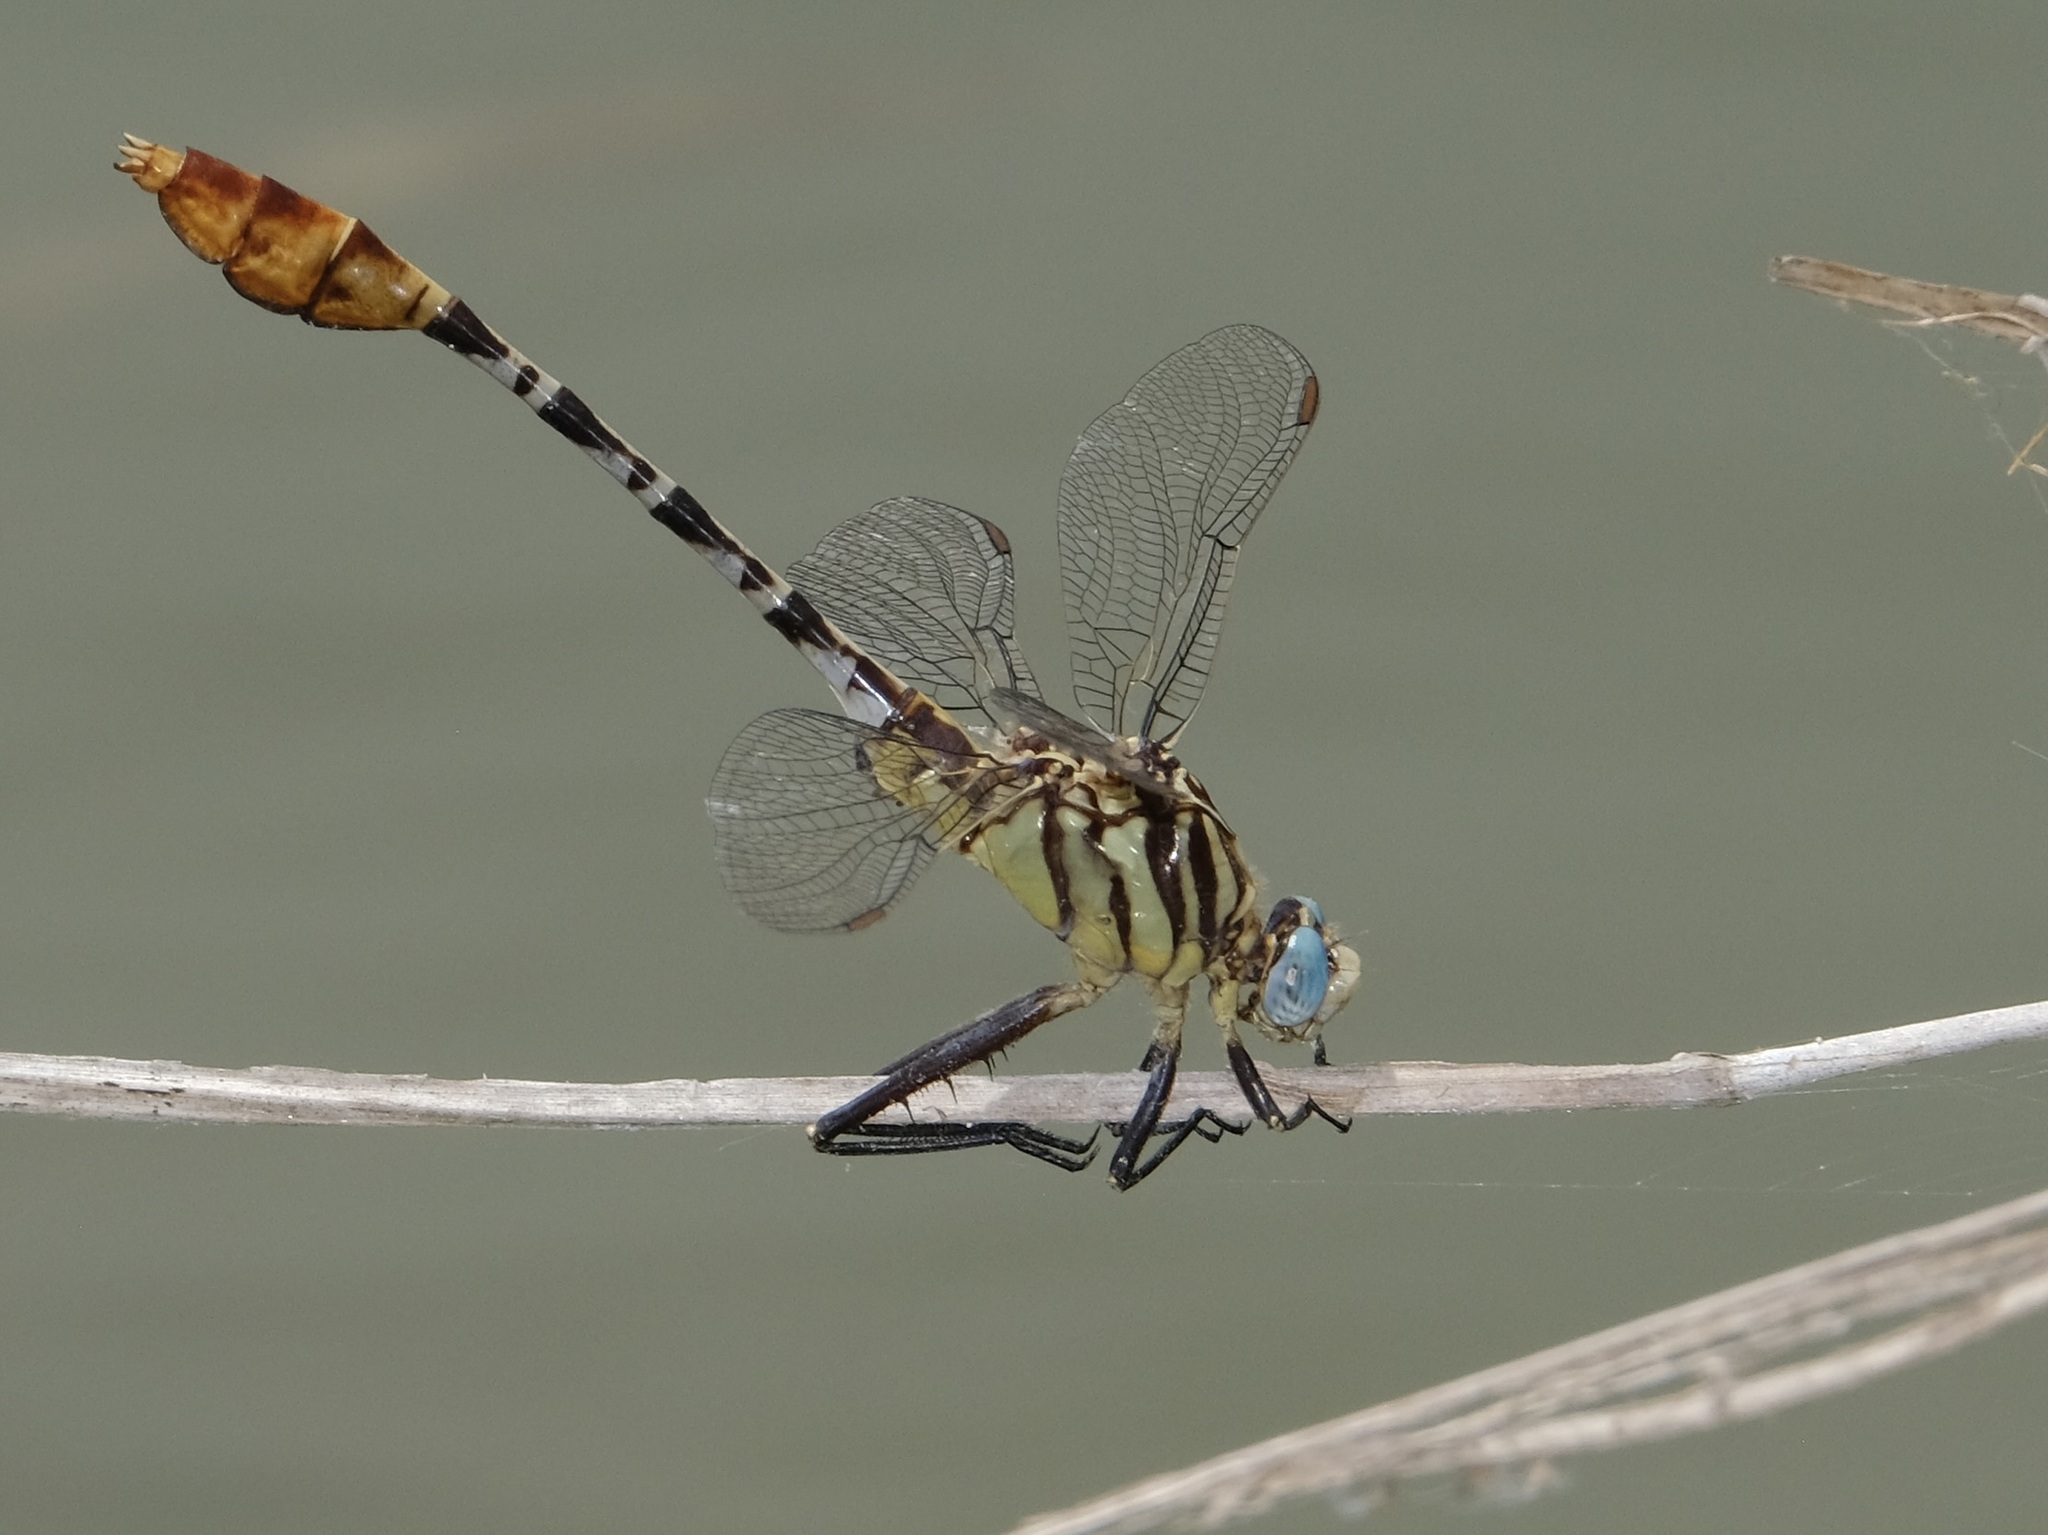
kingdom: Animalia
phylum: Arthropoda
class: Insecta
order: Odonata
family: Gomphidae
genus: Dromogomphus
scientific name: Dromogomphus spoliatus
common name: Flag-tailed spinyleg
